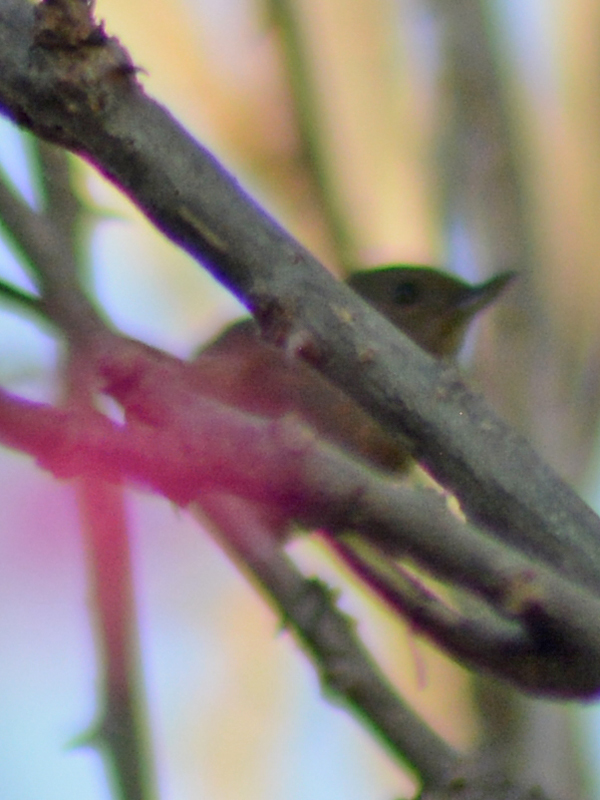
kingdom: Animalia
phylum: Chordata
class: Aves
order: Passeriformes
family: Thraupidae
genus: Diglossa
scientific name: Diglossa baritula
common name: Cinnamon-bellied flowerpiercer
